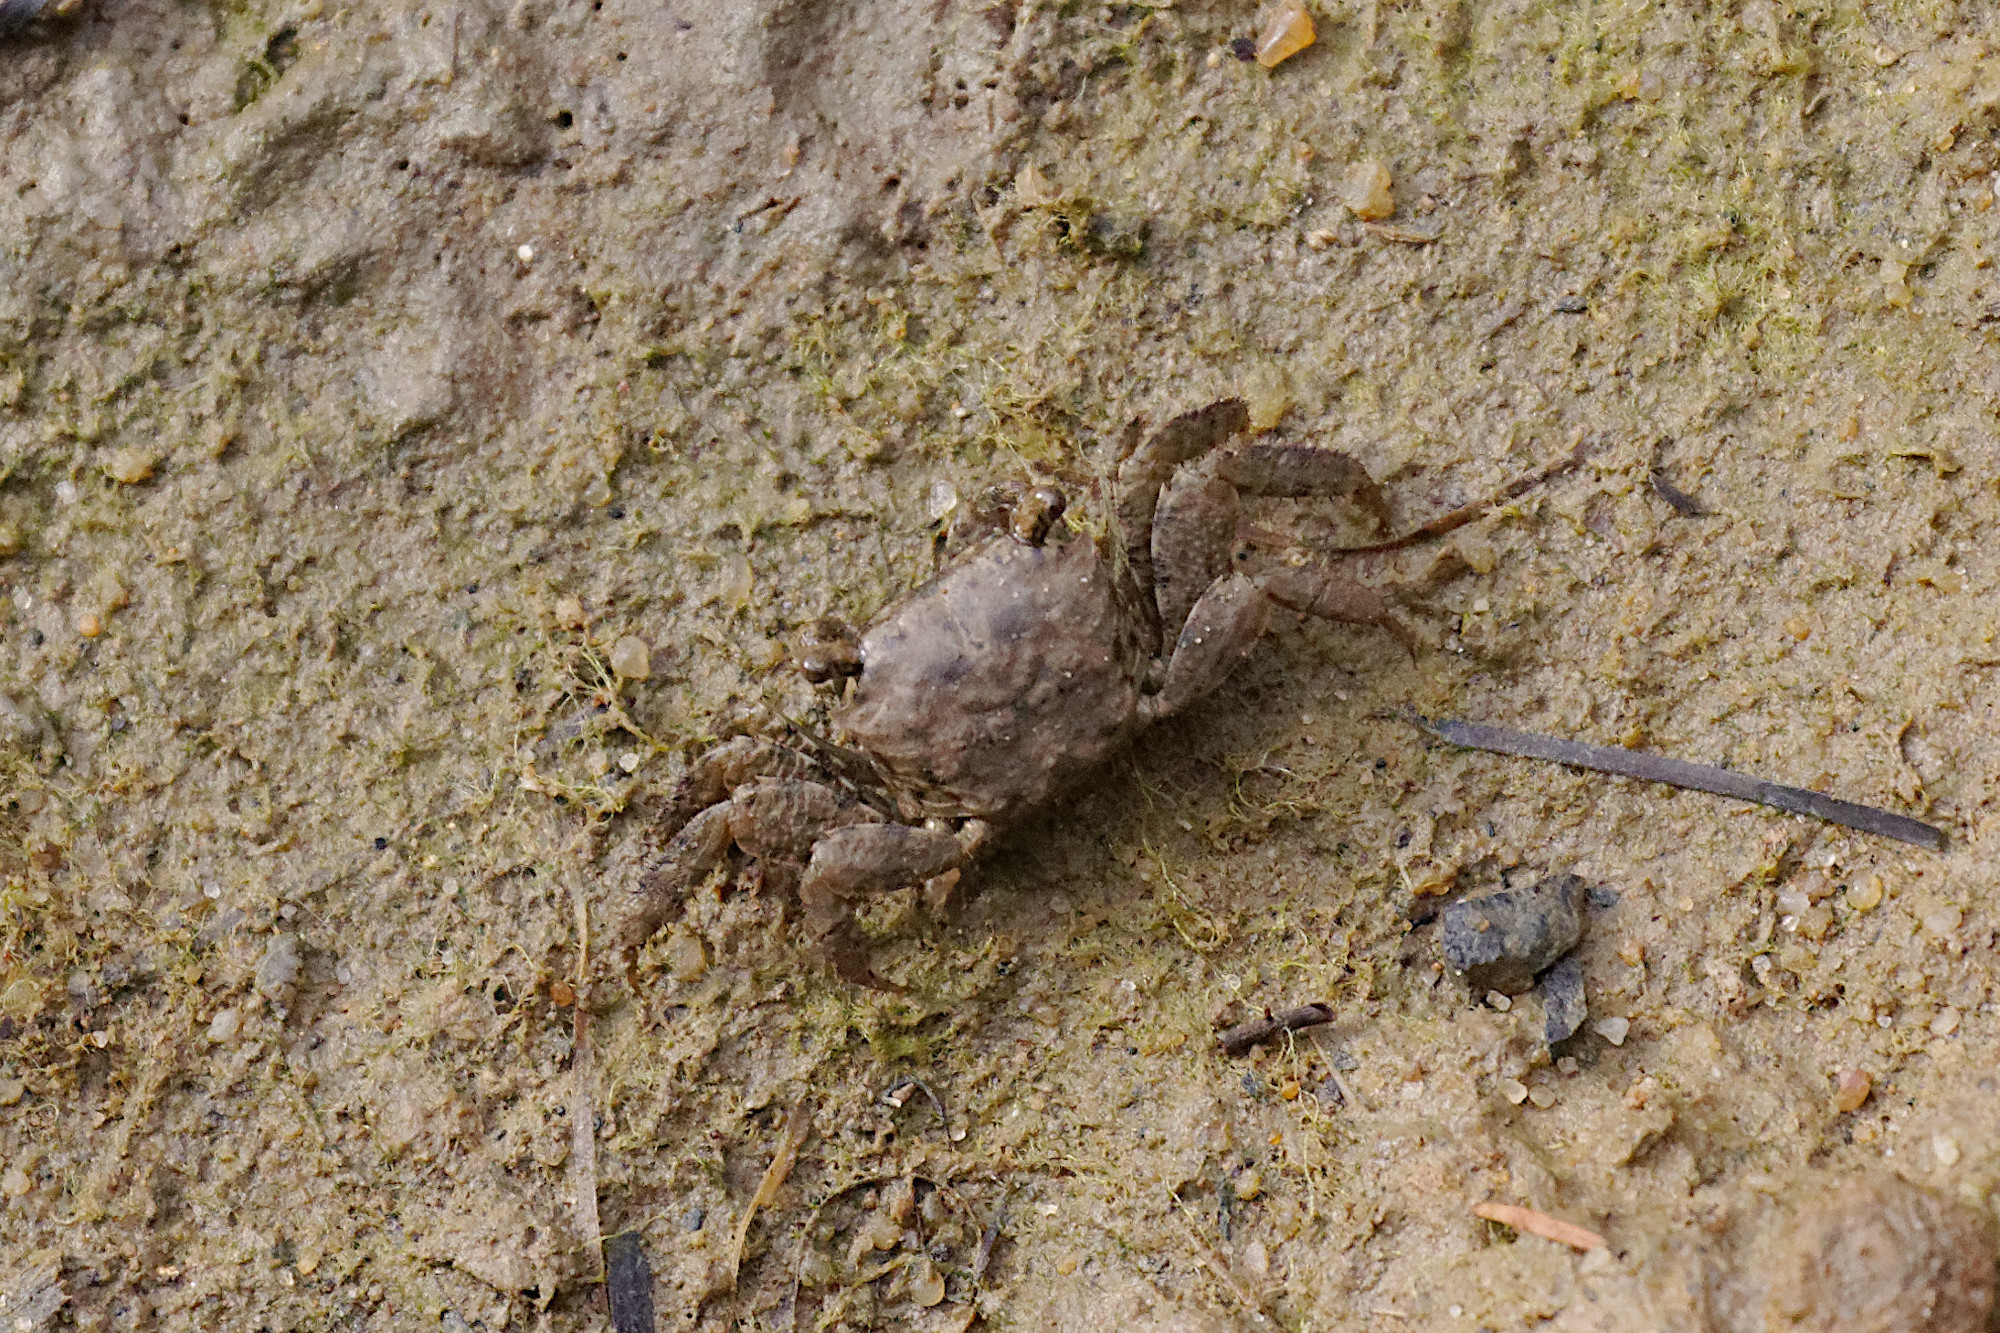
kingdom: Animalia
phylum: Arthropoda
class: Malacostraca
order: Decapoda
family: Sesarmidae
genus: Parasesarma
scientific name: Parasesarma erythodactylum
